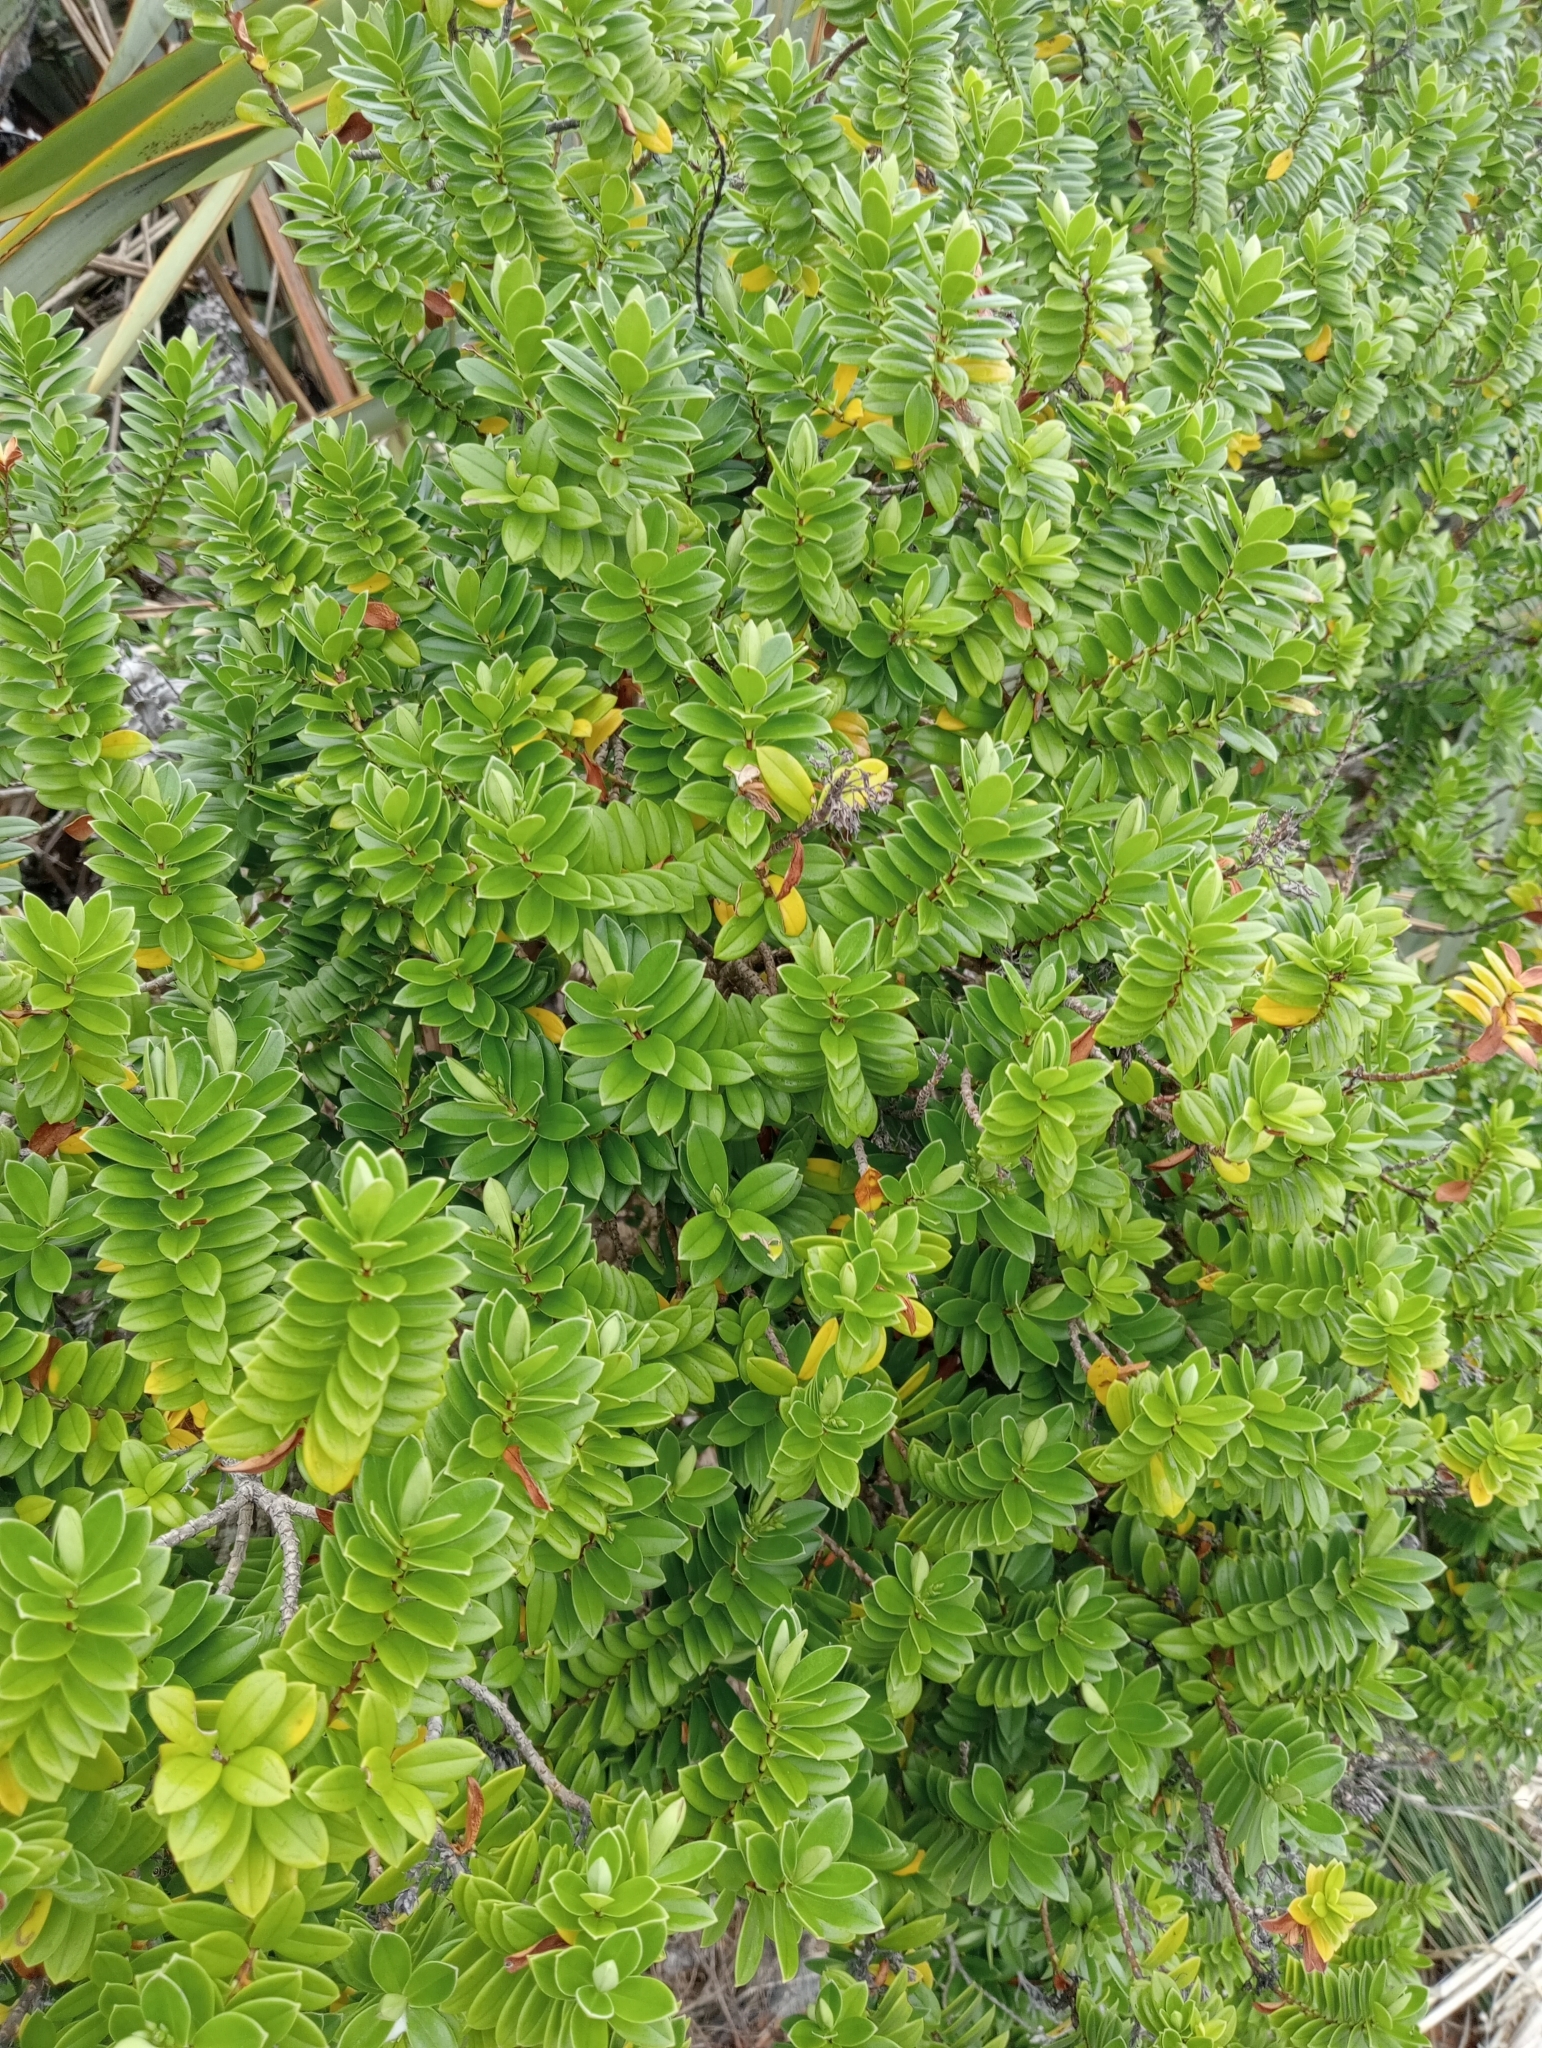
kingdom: Plantae
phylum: Tracheophyta
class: Magnoliopsida
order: Lamiales
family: Plantaginaceae
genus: Veronica
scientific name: Veronica elliptica
